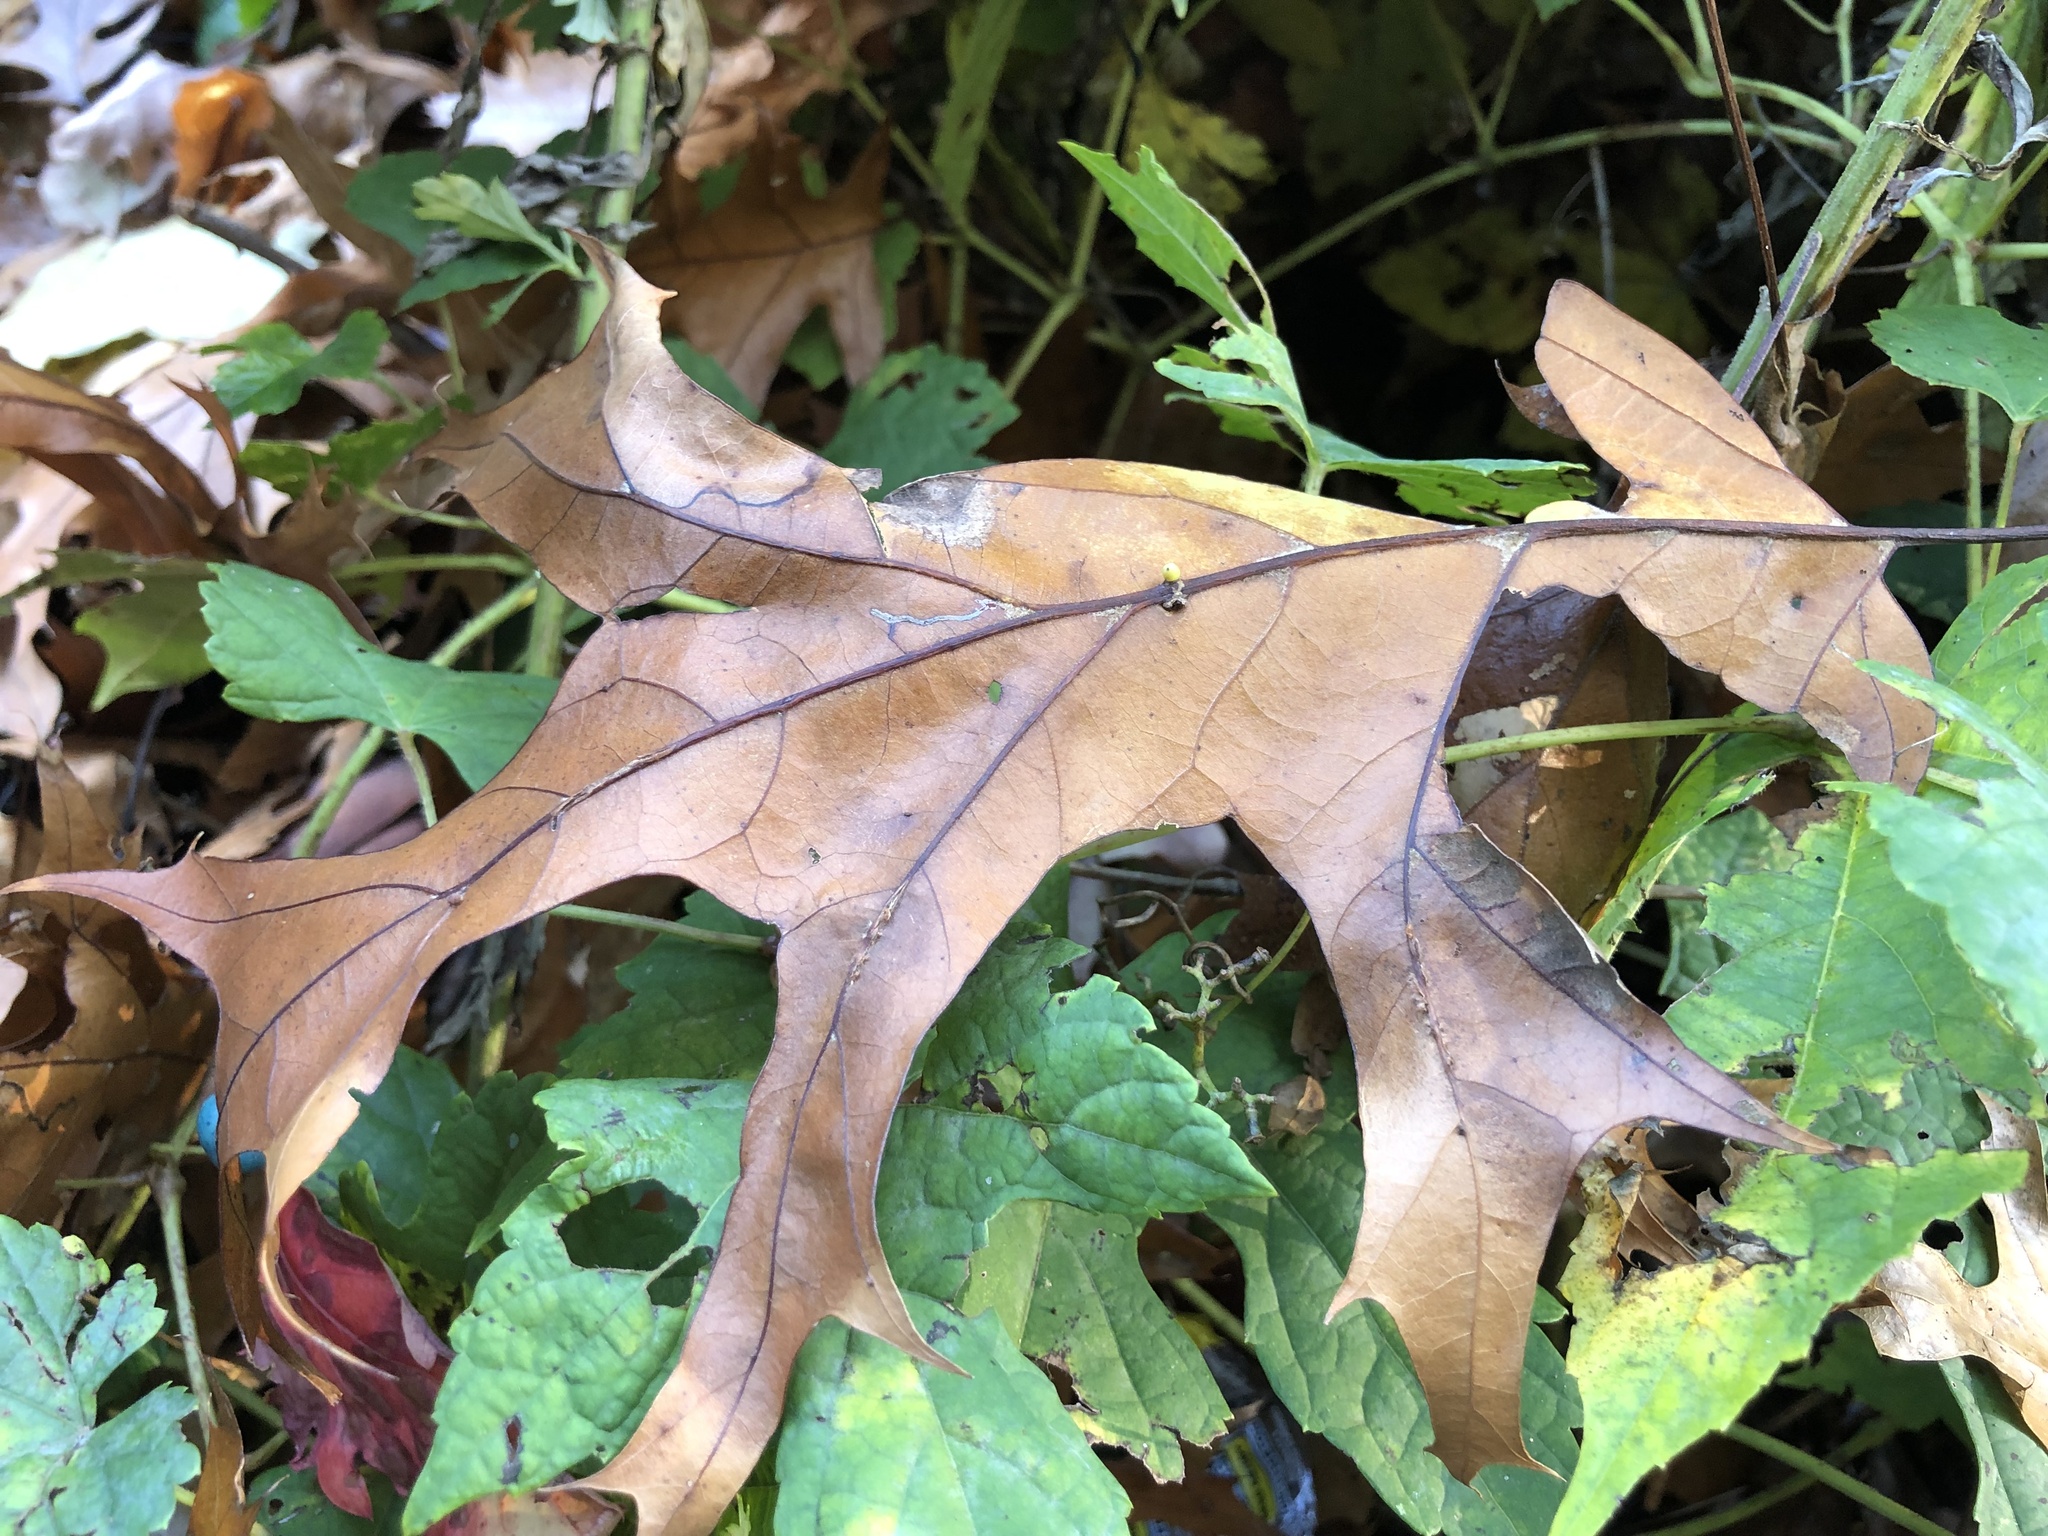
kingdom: Animalia
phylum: Arthropoda
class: Insecta
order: Hymenoptera
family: Cynipidae
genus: Kokkocynips
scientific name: Kokkocynips decidua
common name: Oak wheat gall
